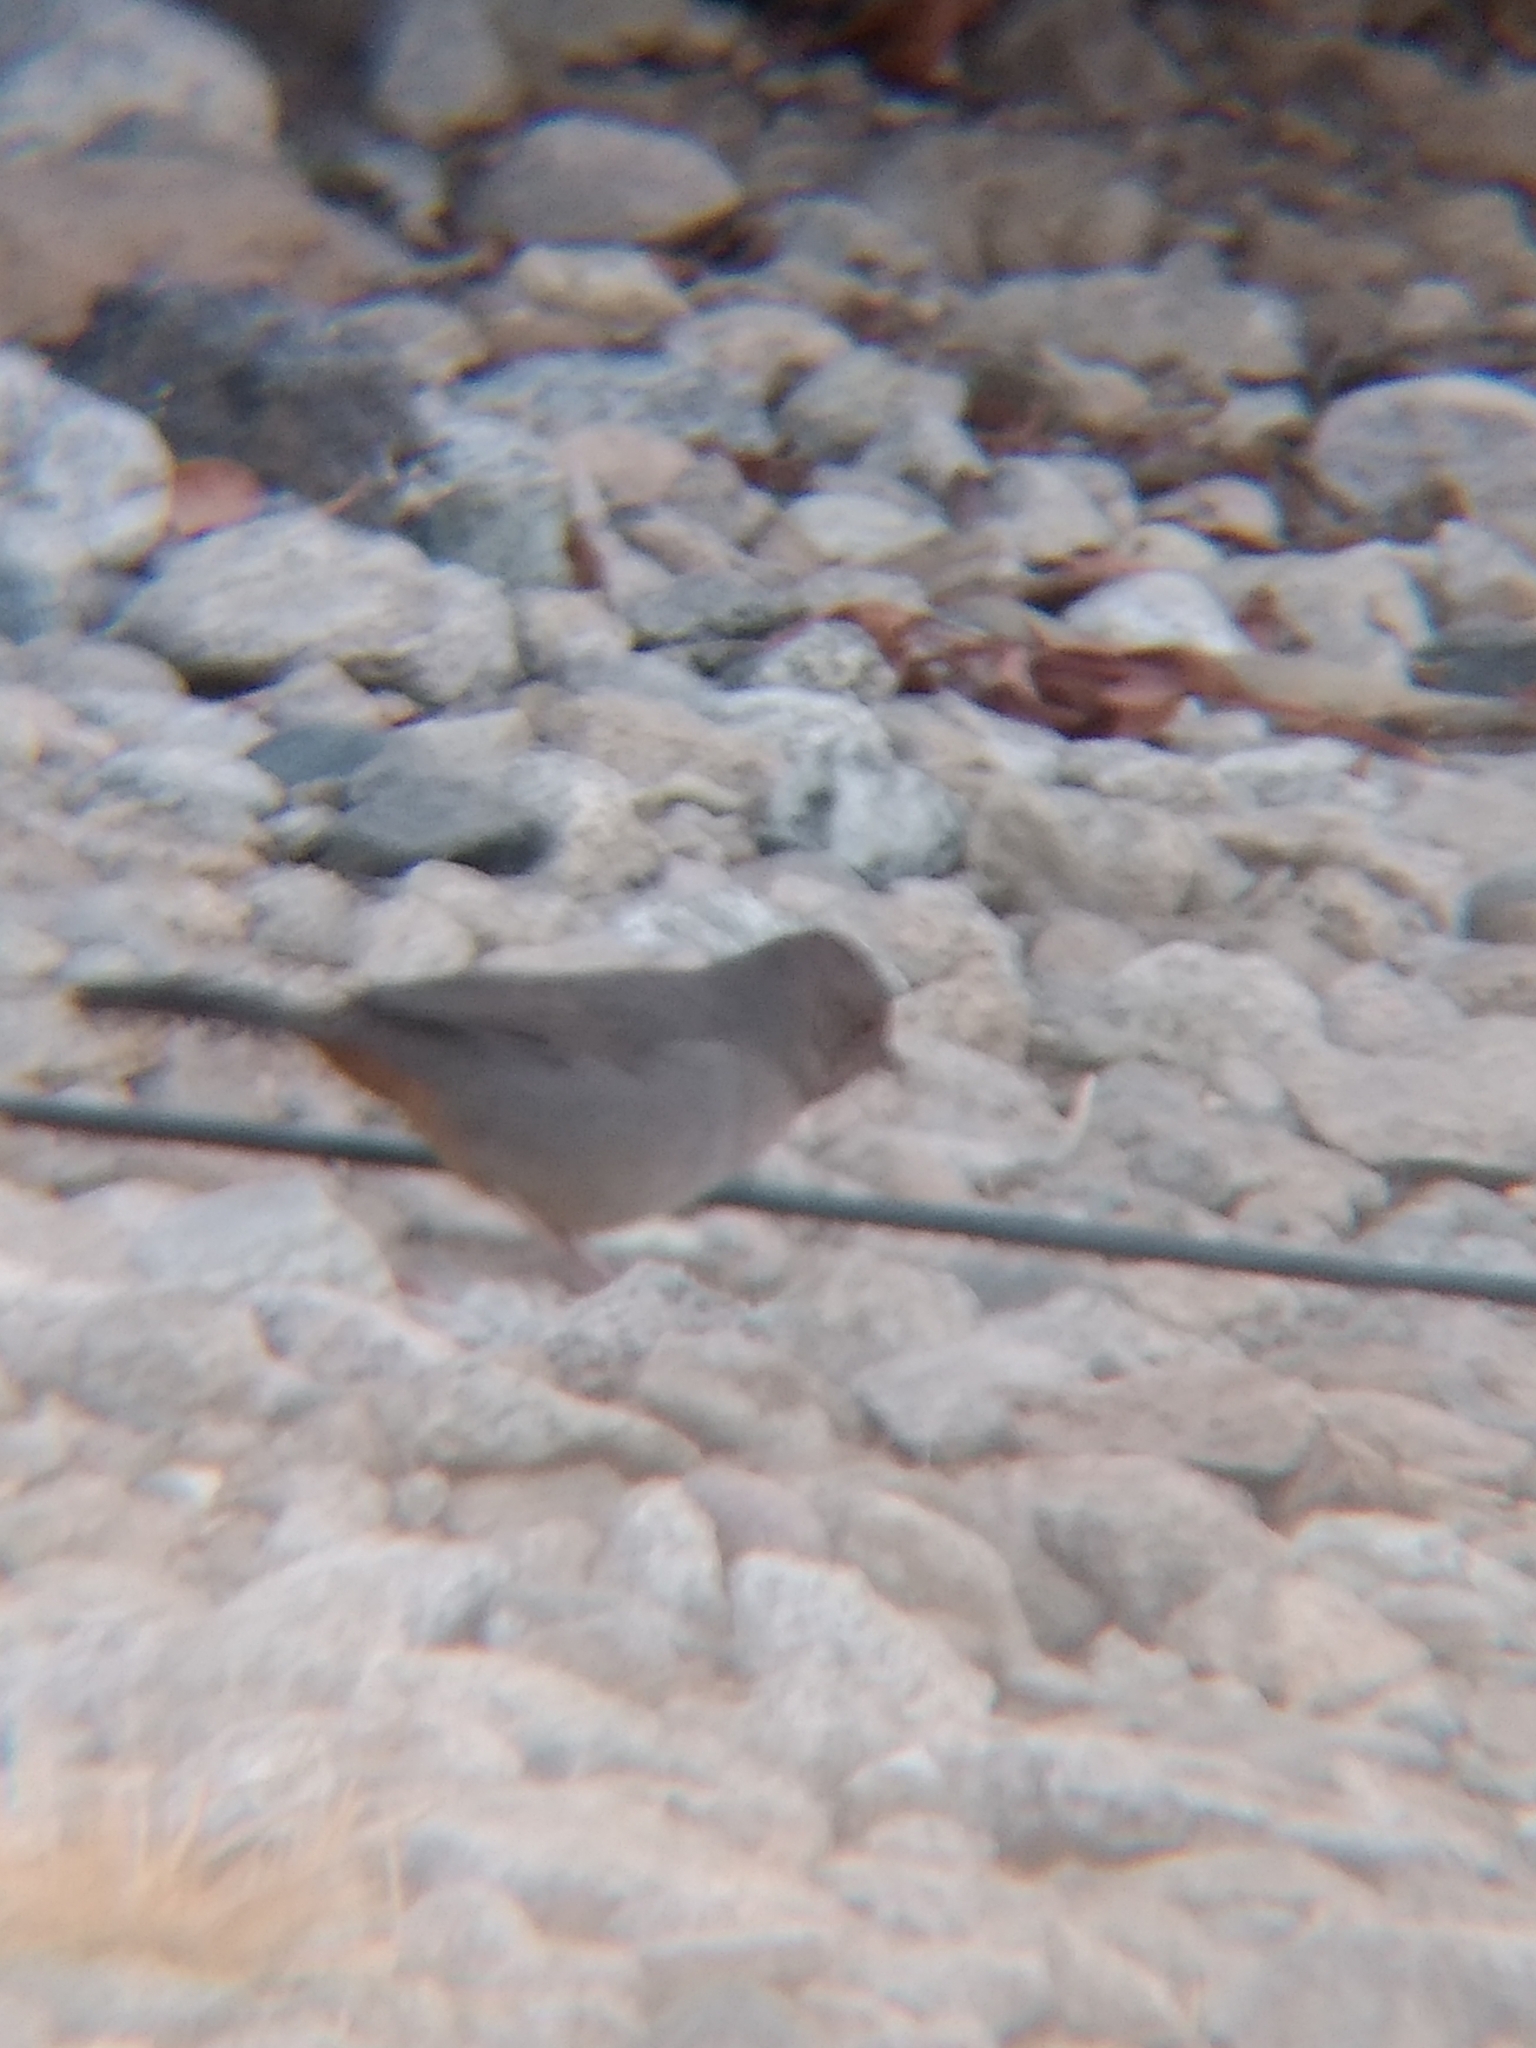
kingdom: Animalia
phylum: Chordata
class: Aves
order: Passeriformes
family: Passerellidae
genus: Melozone
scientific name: Melozone crissalis
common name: California towhee
